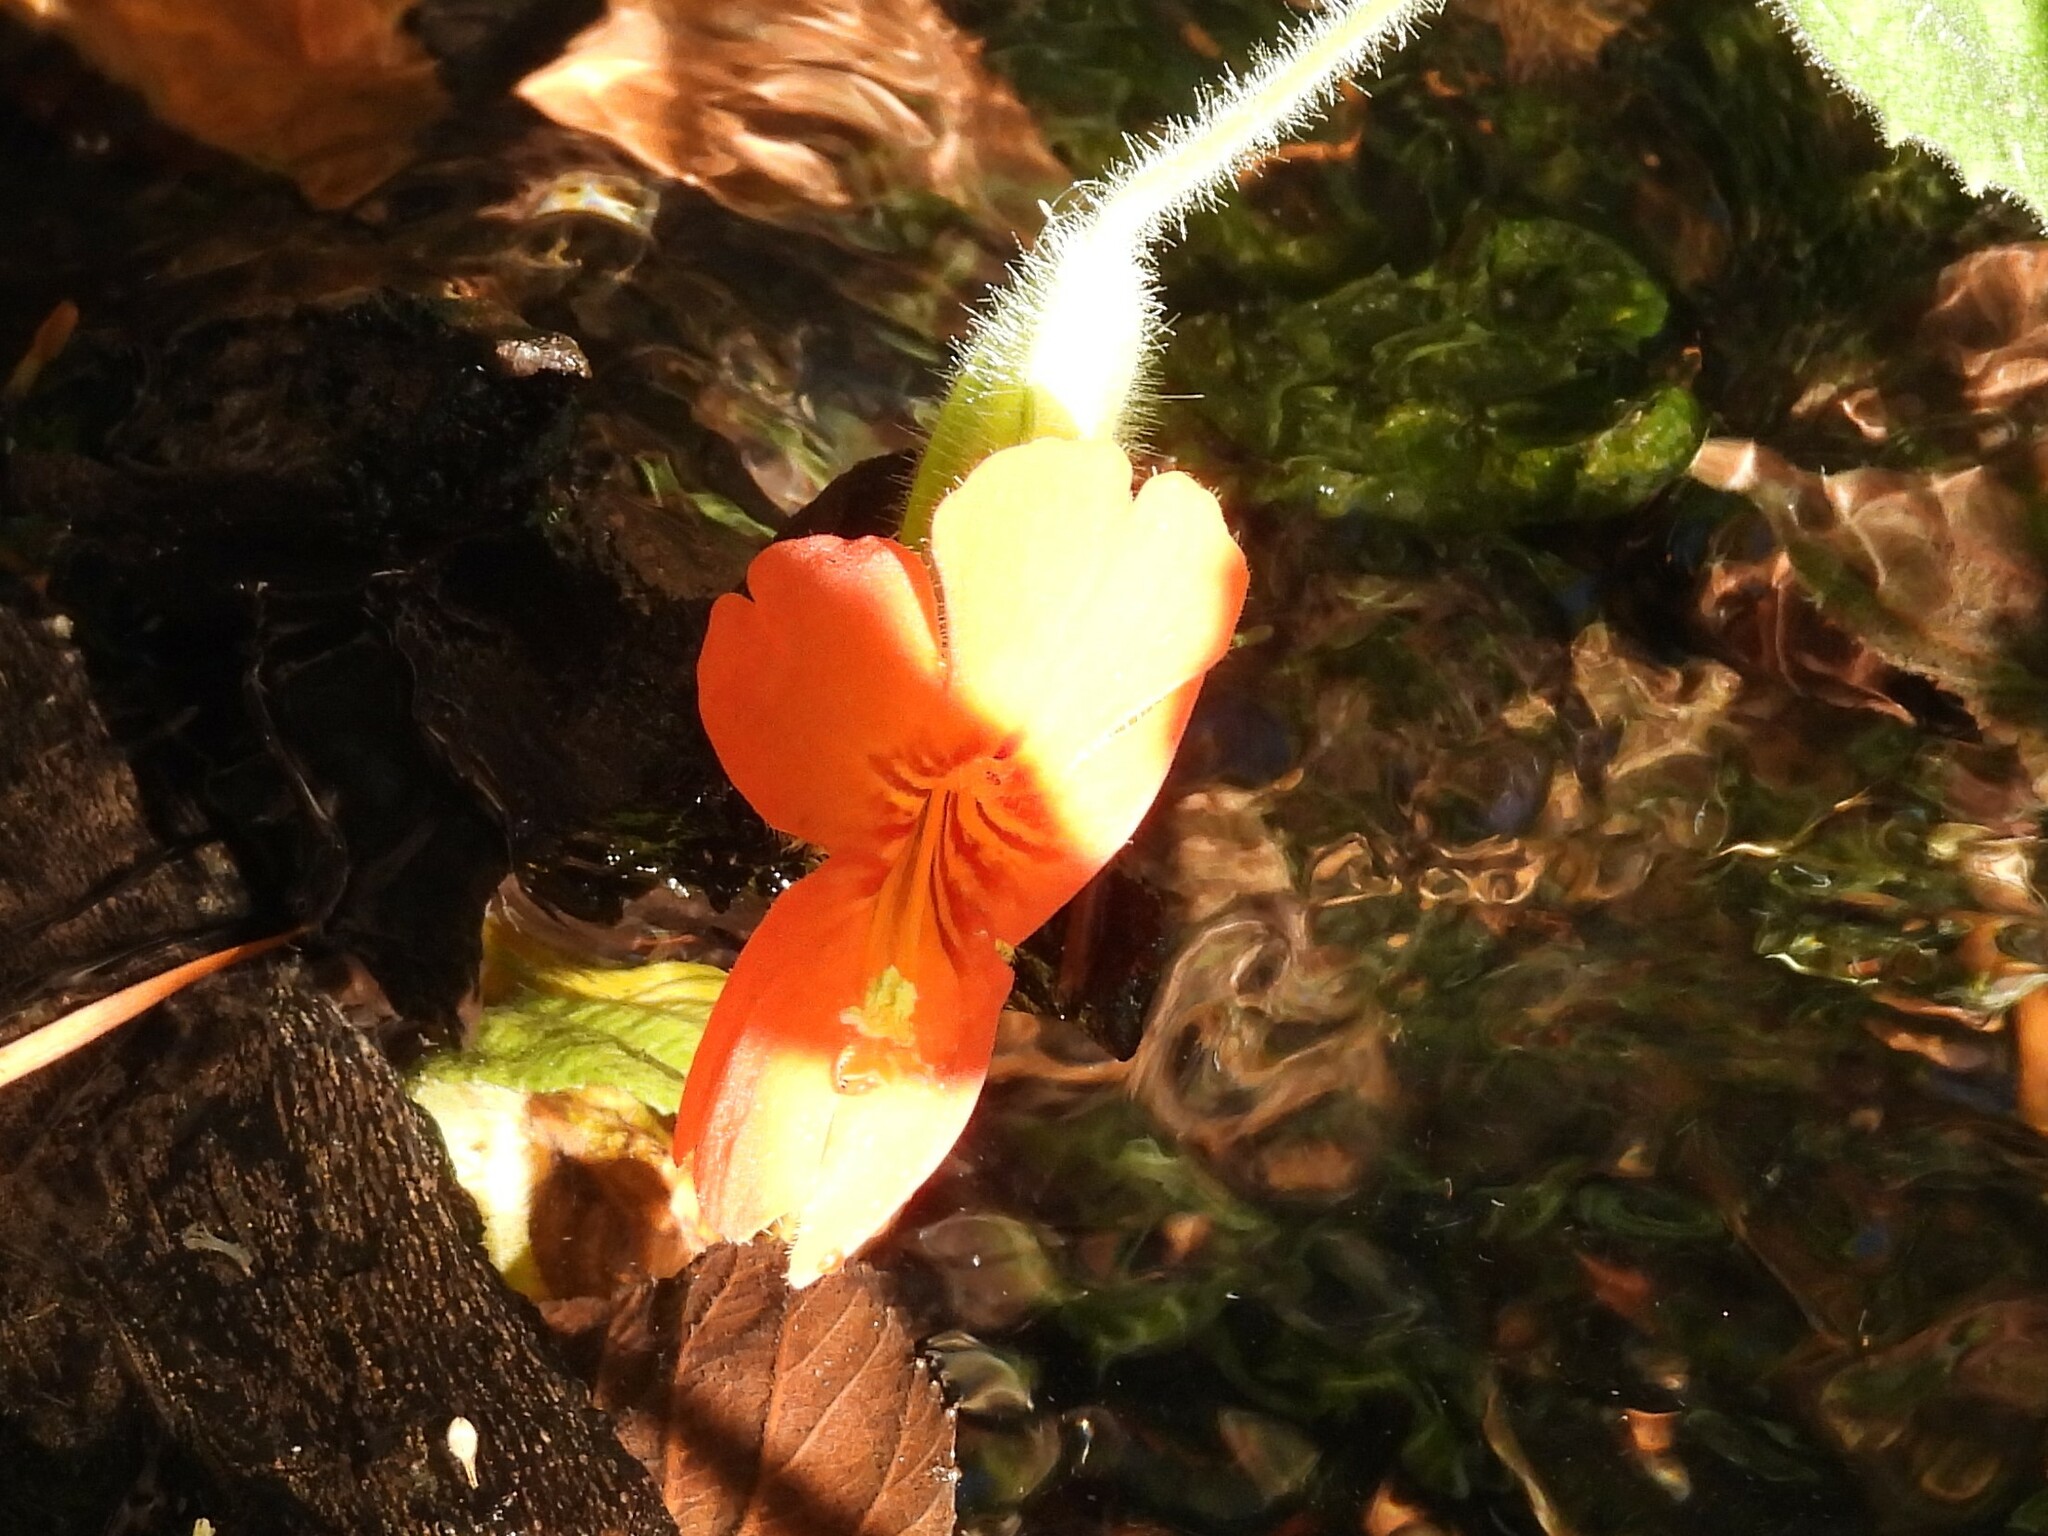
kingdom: Plantae
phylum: Tracheophyta
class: Magnoliopsida
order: Lamiales
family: Phrymaceae
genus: Erythranthe
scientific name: Erythranthe cardinalis
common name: Scarlet monkey-flower
